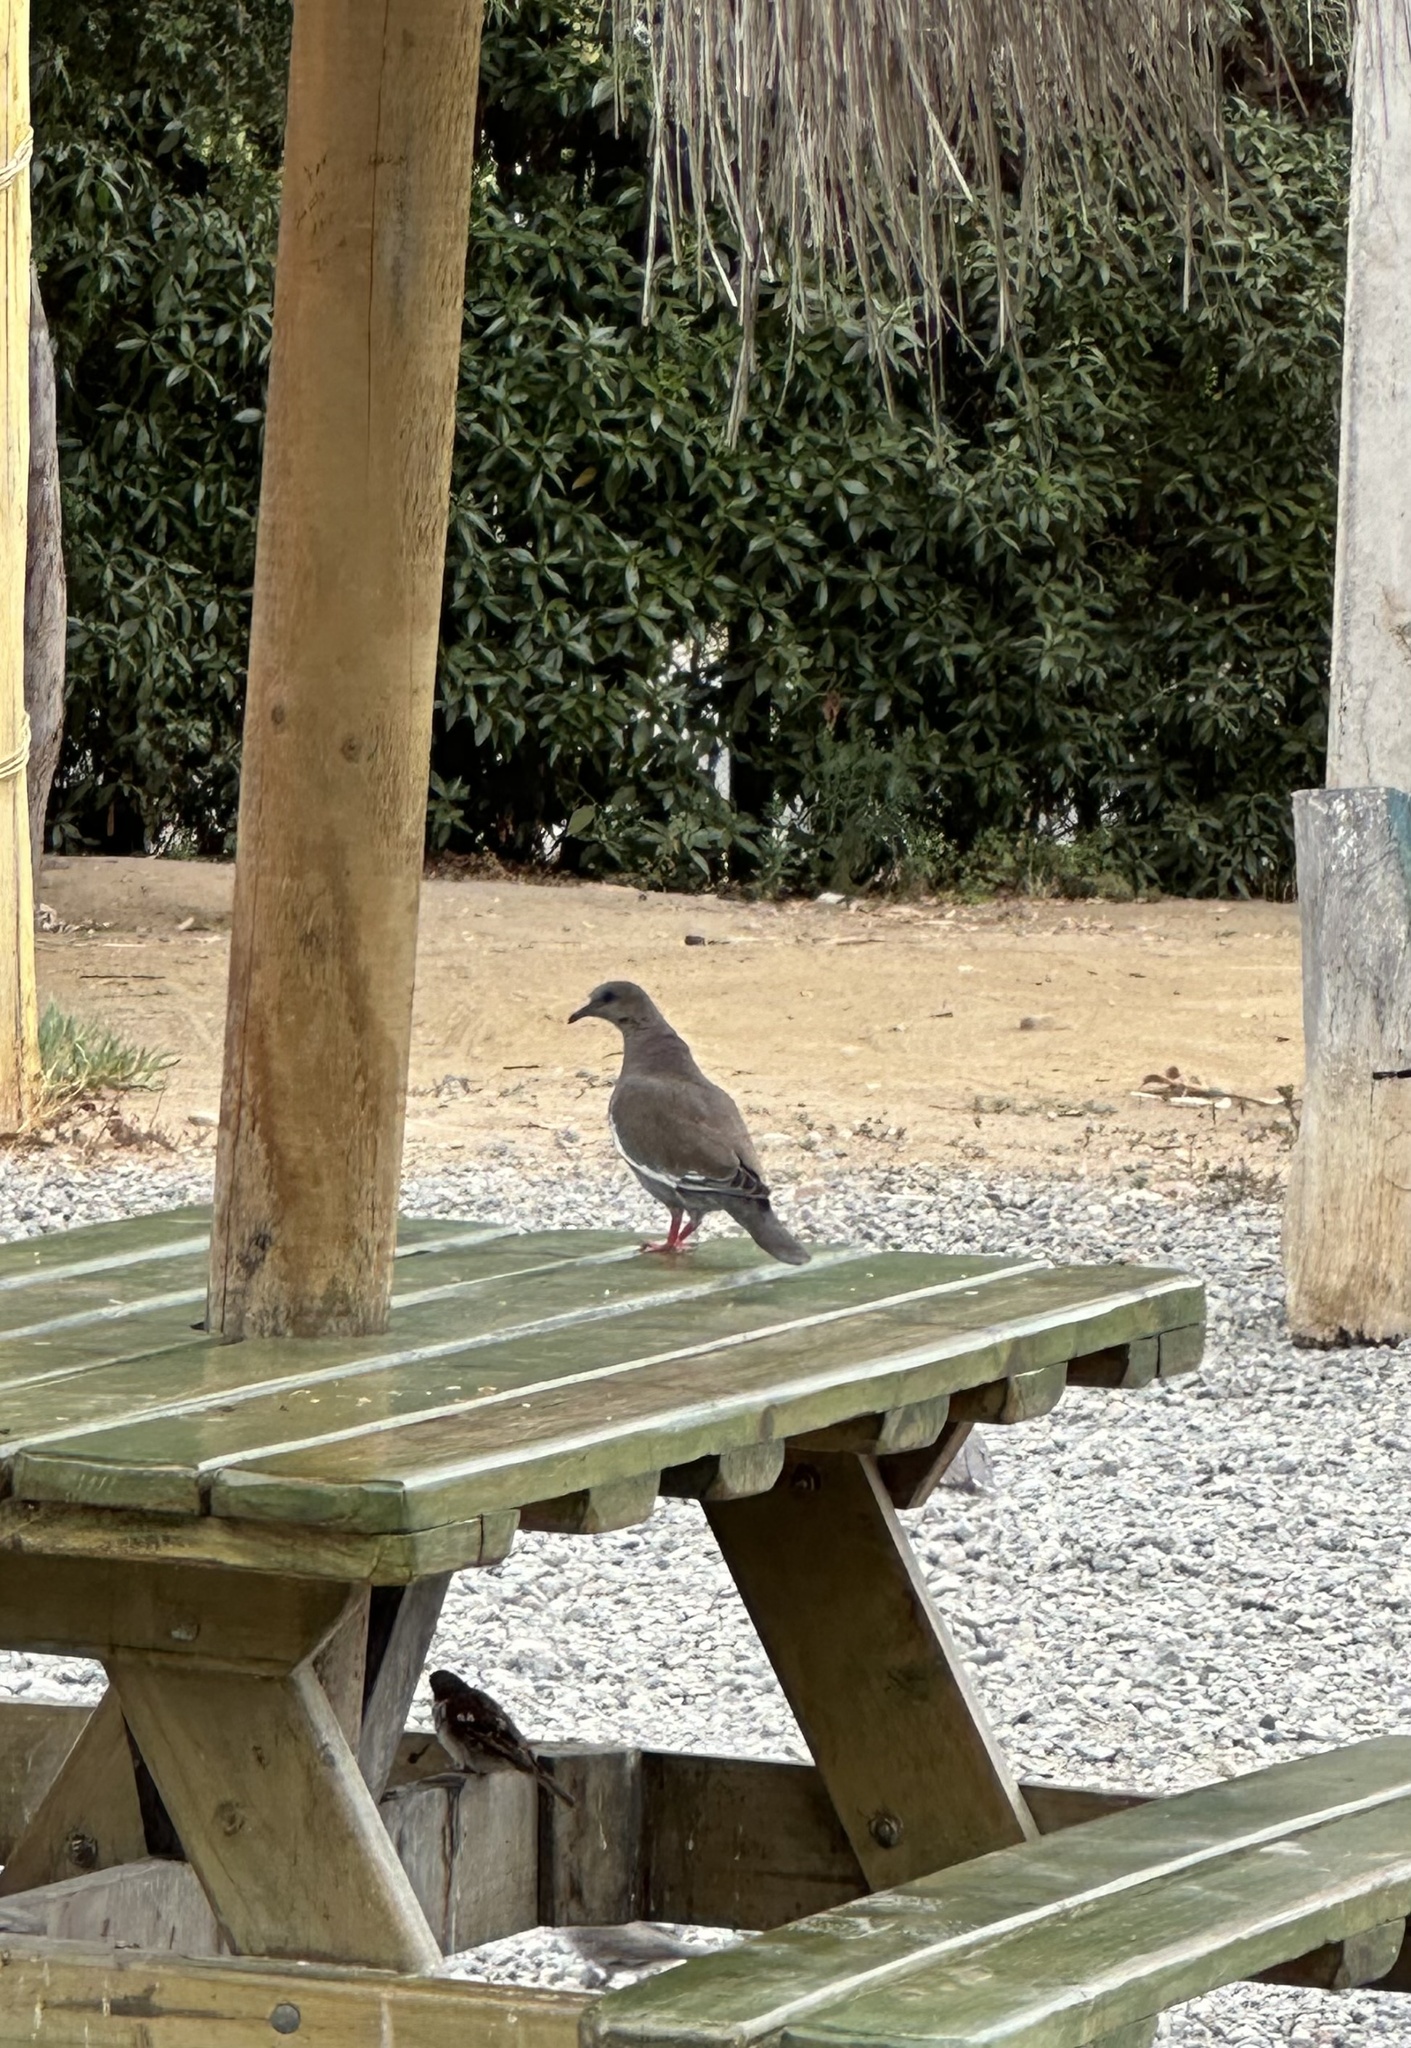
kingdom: Animalia
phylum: Chordata
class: Aves
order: Columbiformes
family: Columbidae
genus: Zenaida
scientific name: Zenaida meloda
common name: West peruvian dove
